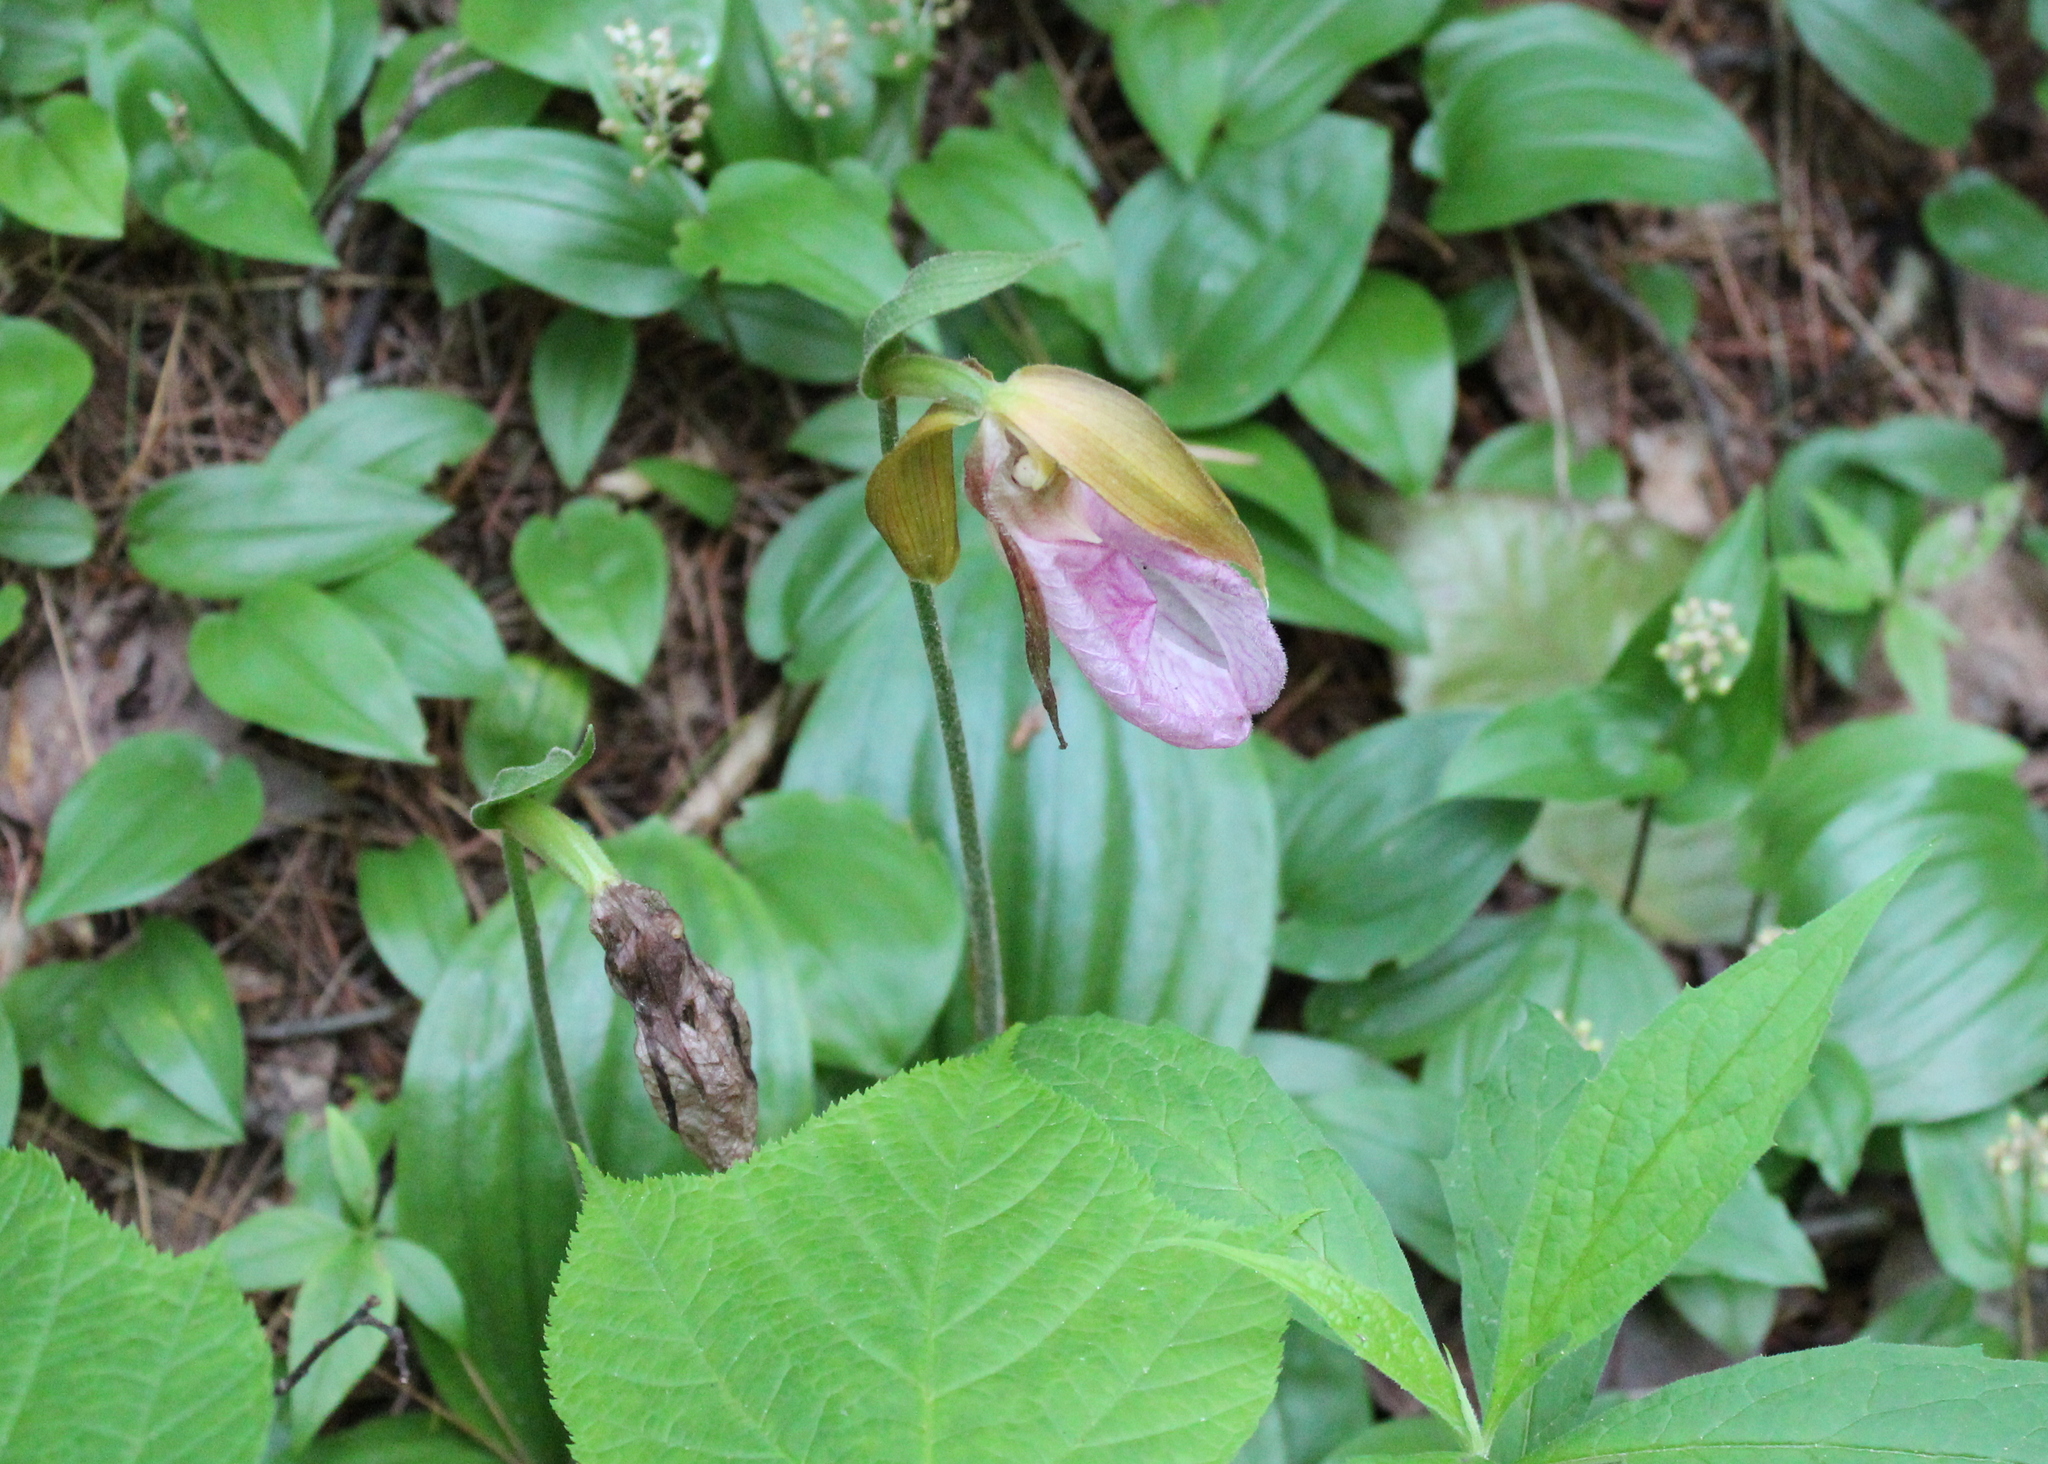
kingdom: Plantae
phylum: Tracheophyta
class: Liliopsida
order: Asparagales
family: Orchidaceae
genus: Cypripedium
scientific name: Cypripedium acaule
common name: Pink lady's-slipper
